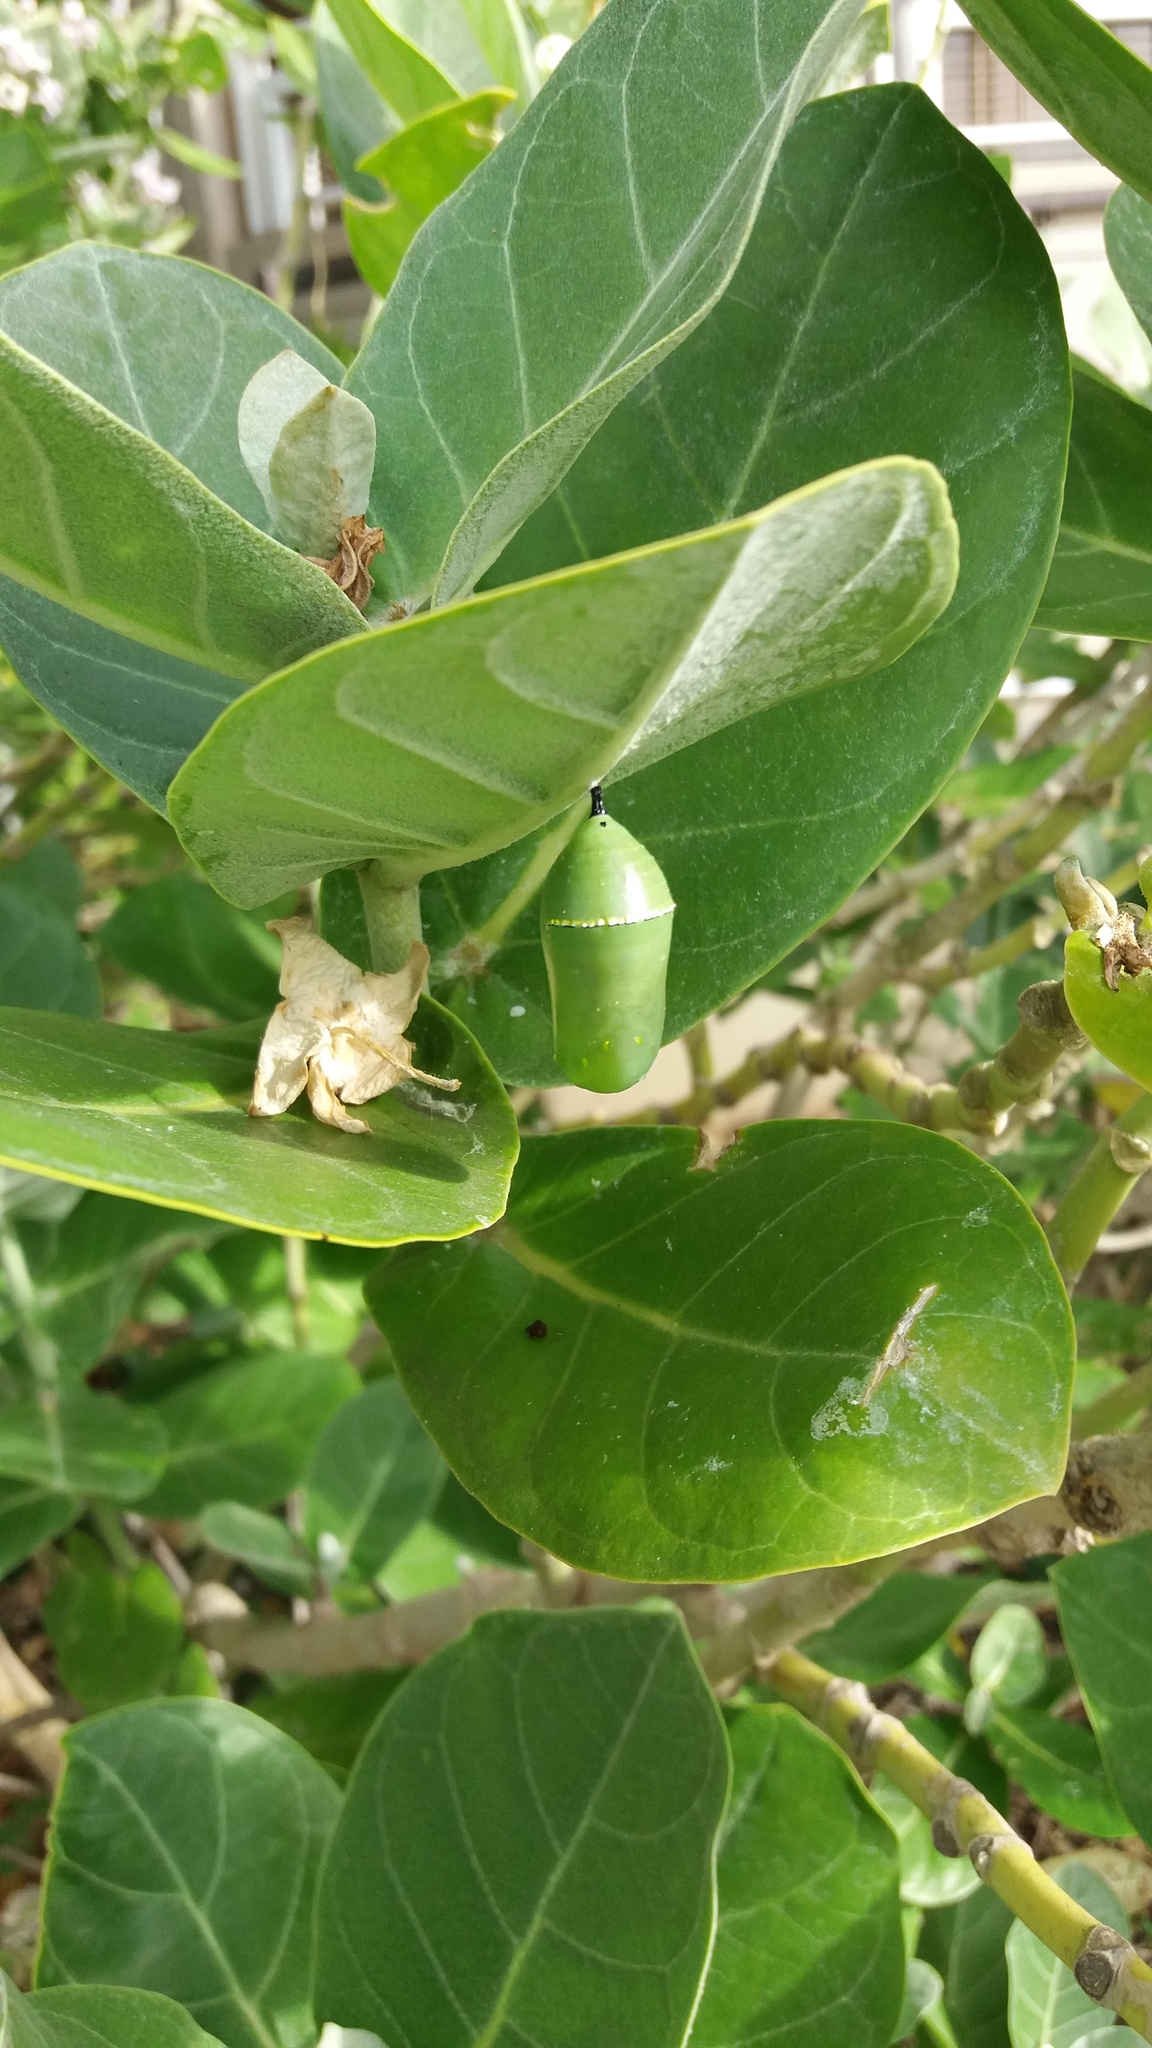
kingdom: Animalia
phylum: Arthropoda
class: Insecta
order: Lepidoptera
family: Nymphalidae
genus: Danaus
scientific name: Danaus plexippus
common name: Monarch
